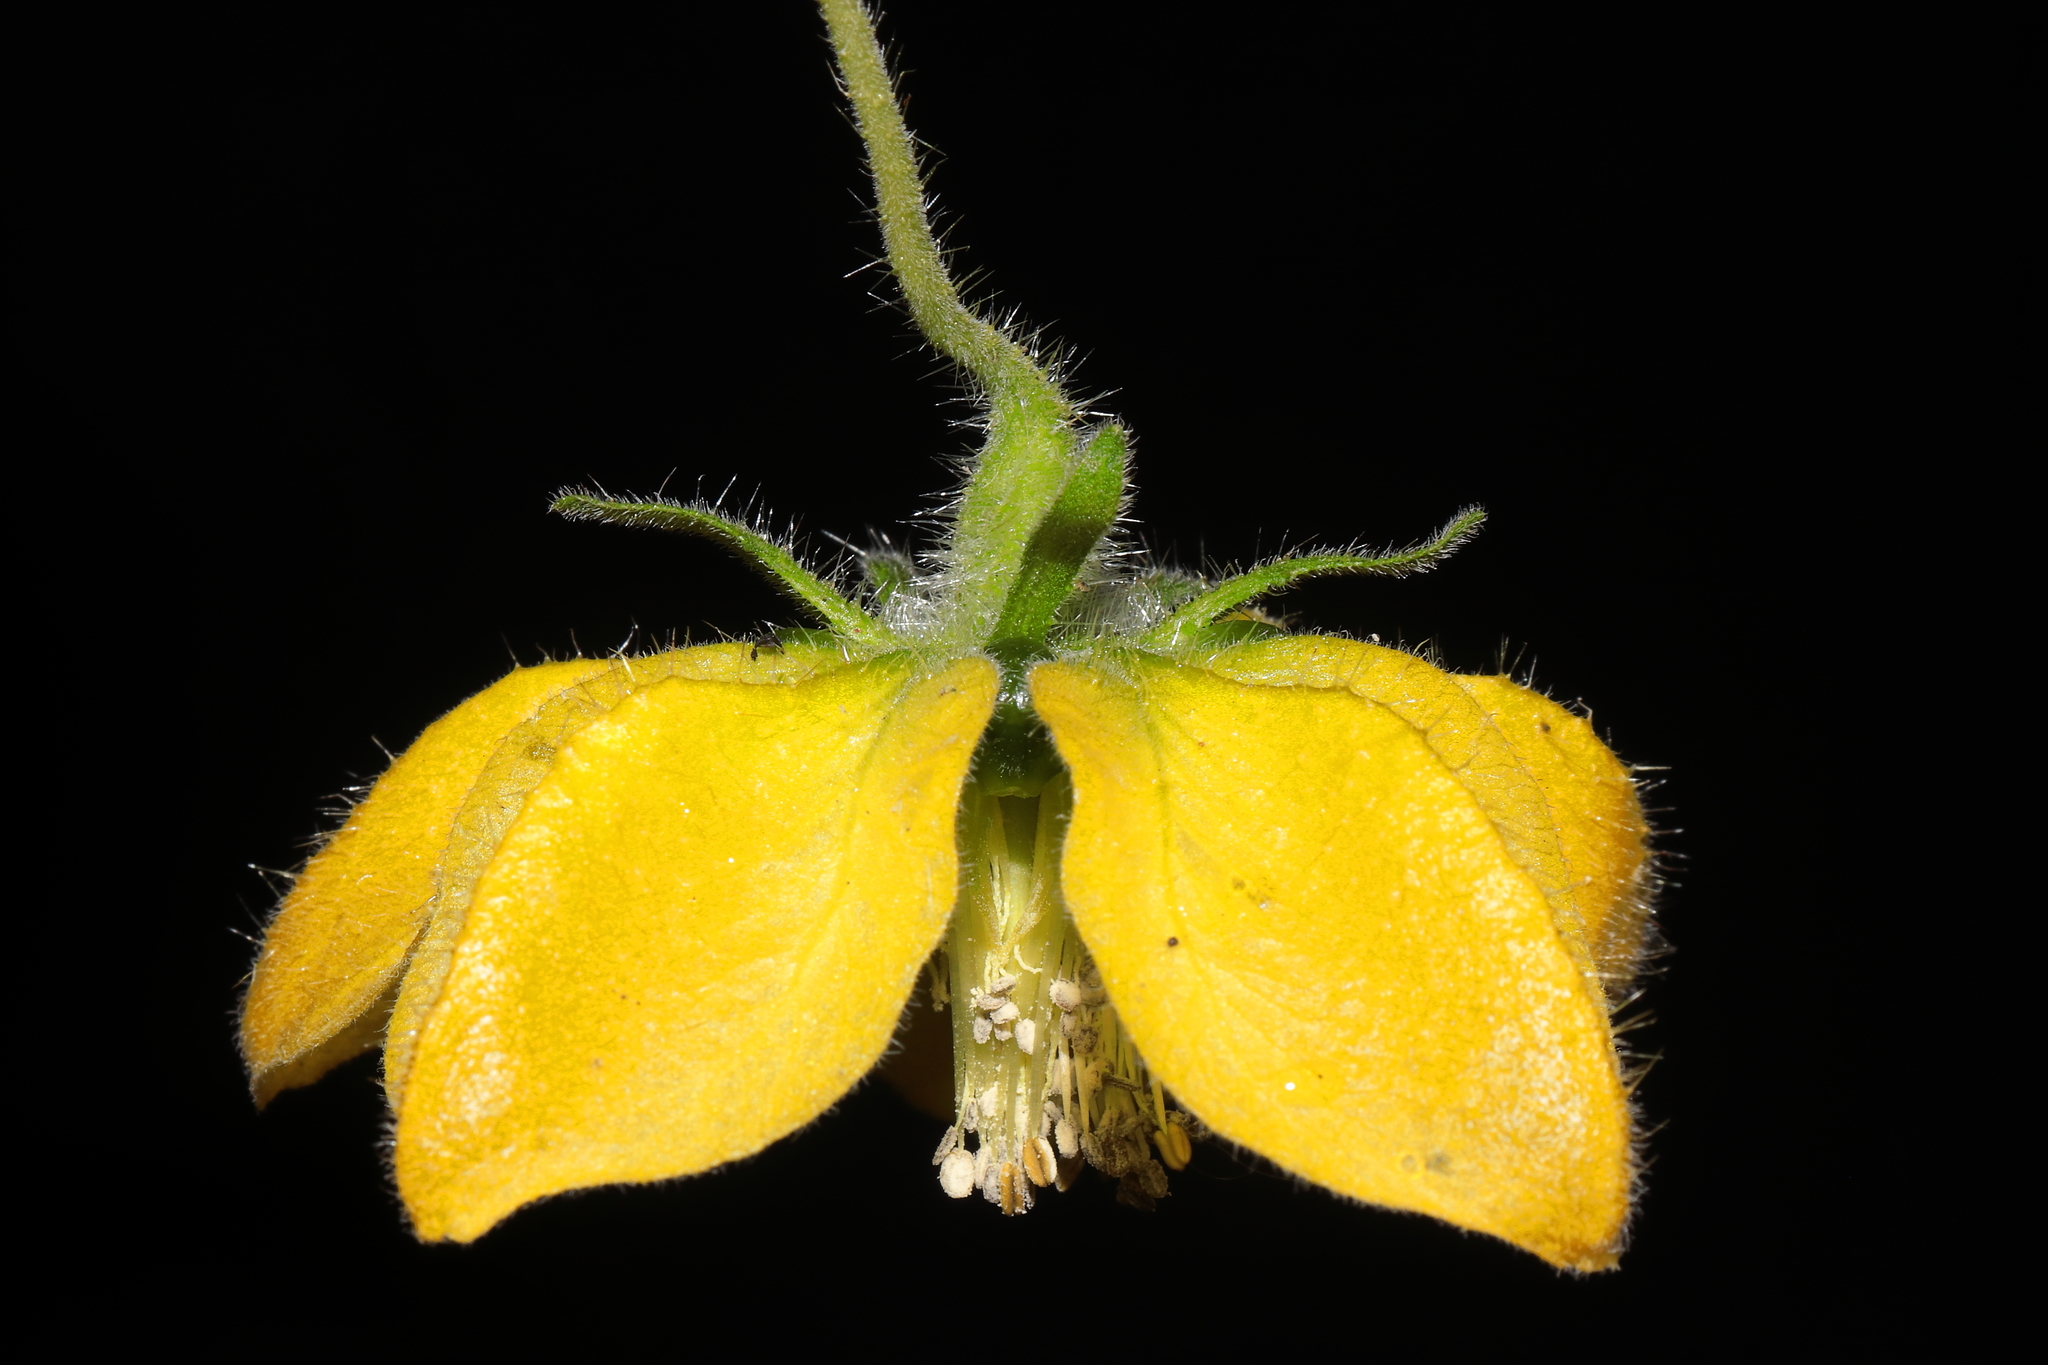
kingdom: Plantae
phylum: Tracheophyta
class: Magnoliopsida
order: Cornales
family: Loasaceae
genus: Caiophora
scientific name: Caiophora carduifolia
